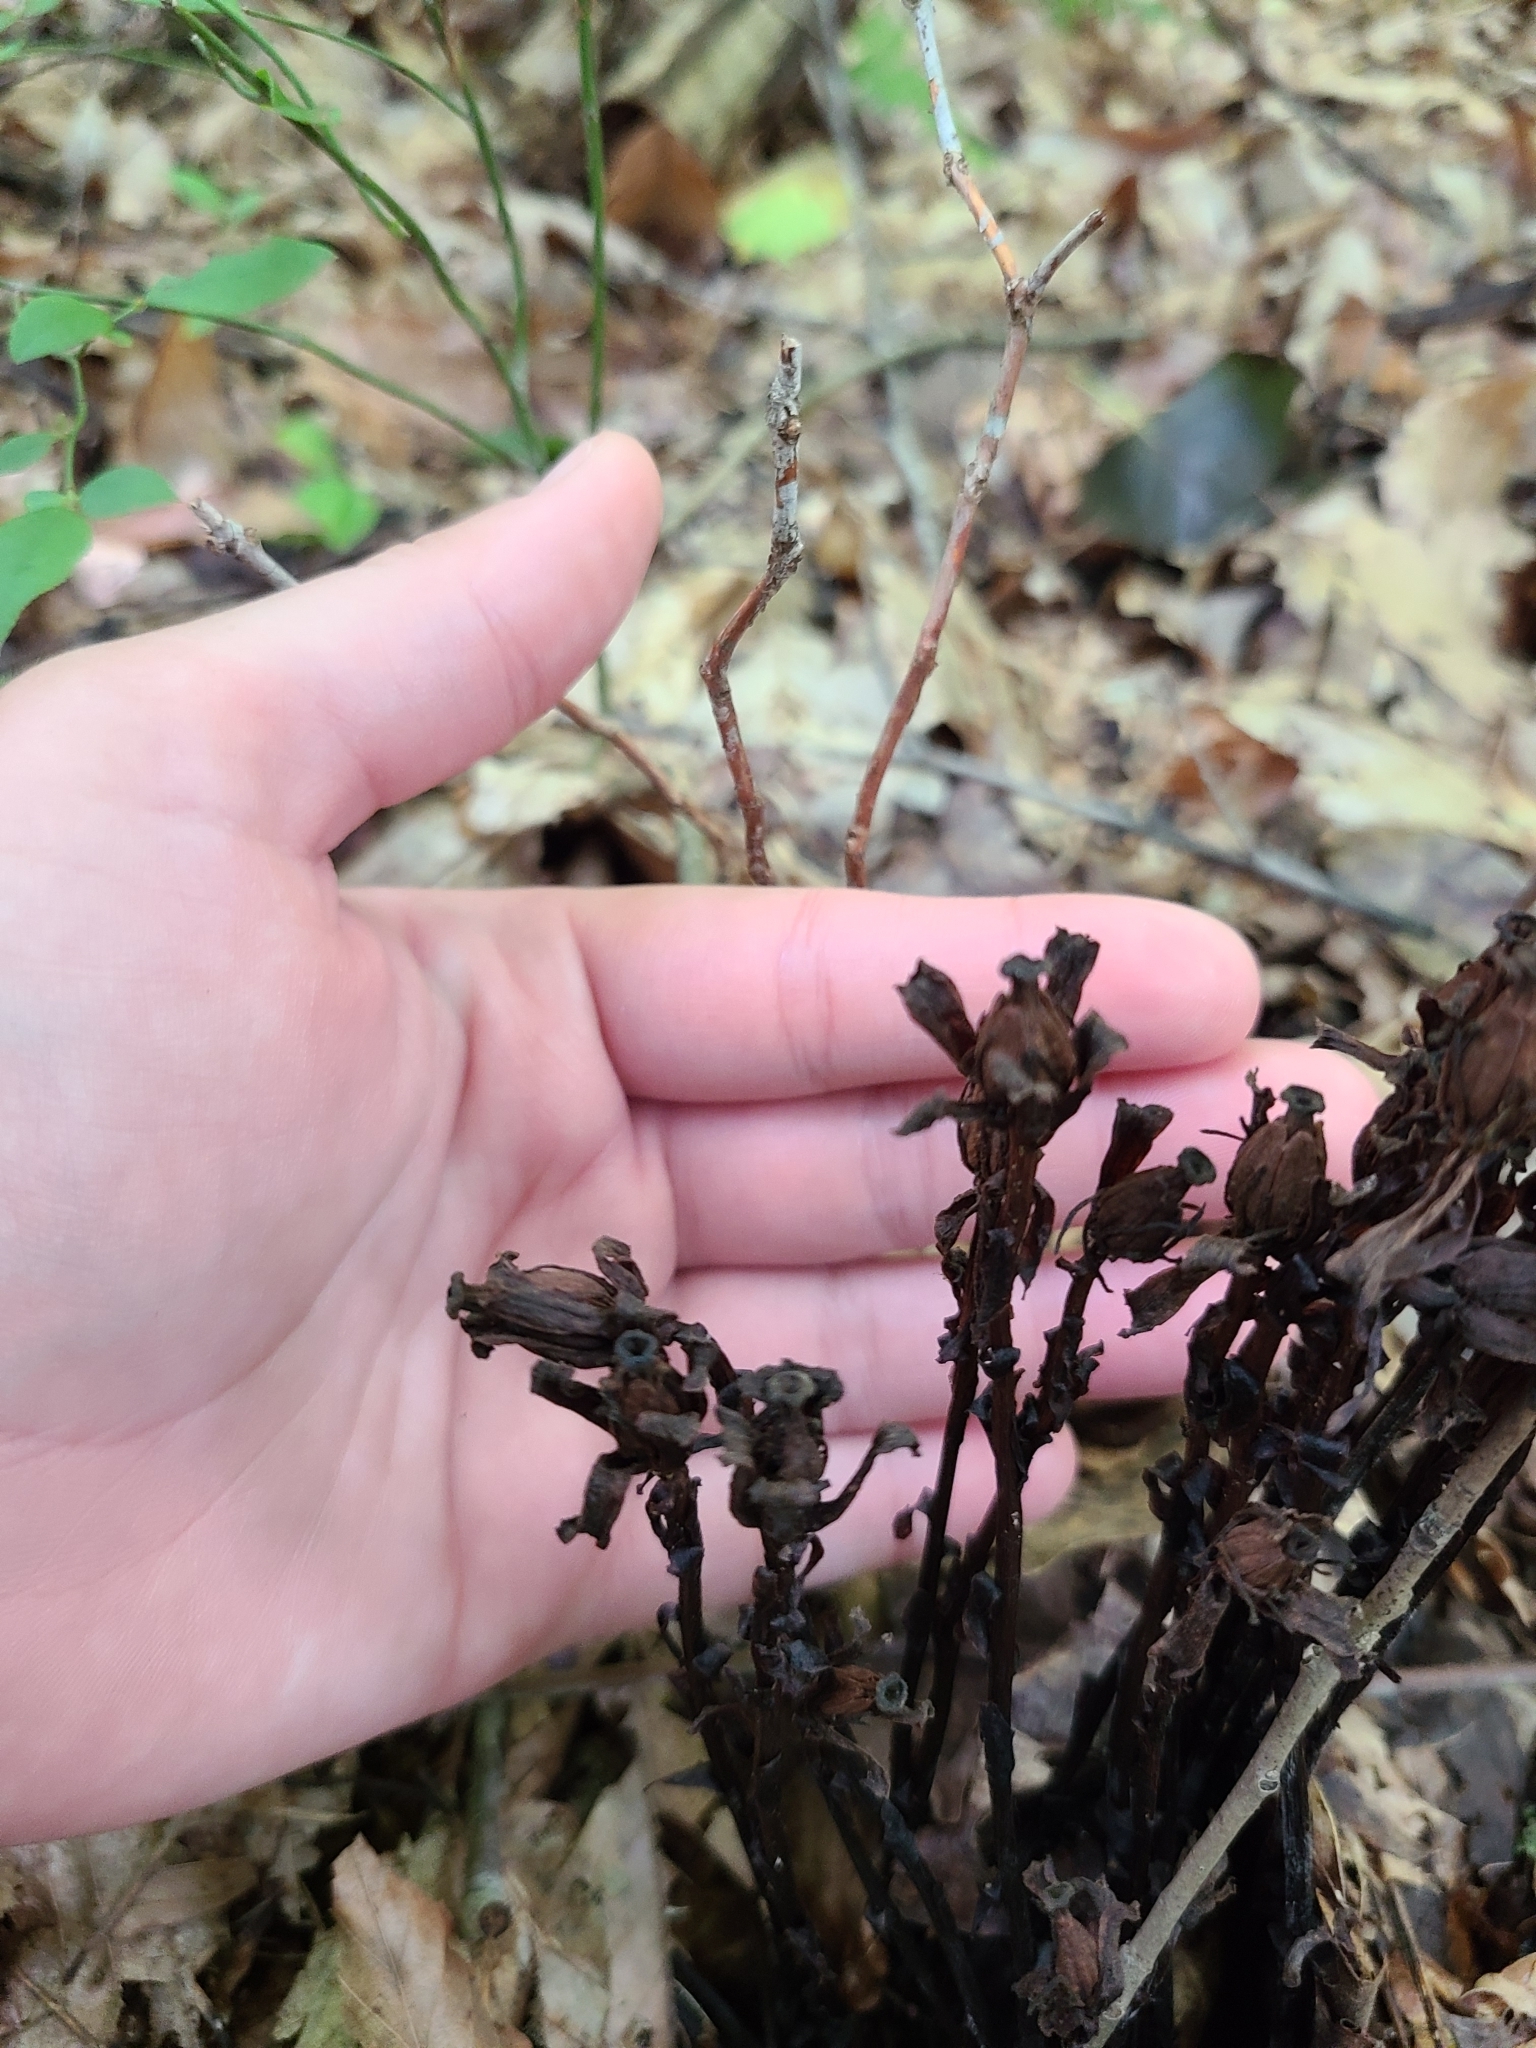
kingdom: Plantae
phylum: Tracheophyta
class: Magnoliopsida
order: Ericales
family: Ericaceae
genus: Monotropa
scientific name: Monotropa uniflora
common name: Convulsion root
